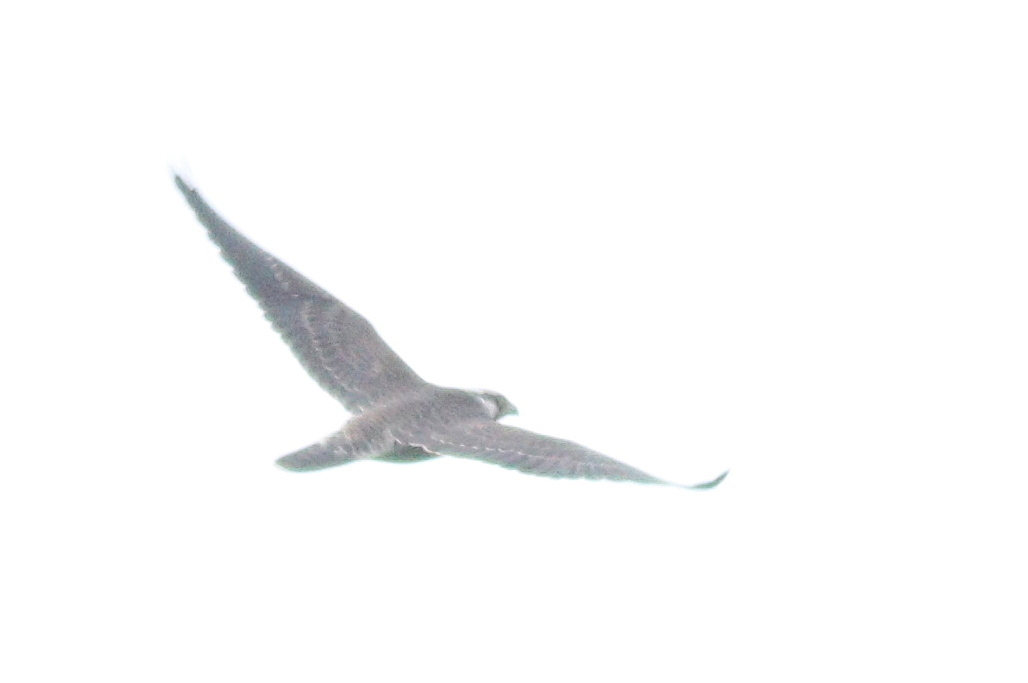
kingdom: Animalia
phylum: Chordata
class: Aves
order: Falconiformes
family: Falconidae
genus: Falco
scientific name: Falco peregrinus
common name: Peregrine falcon
